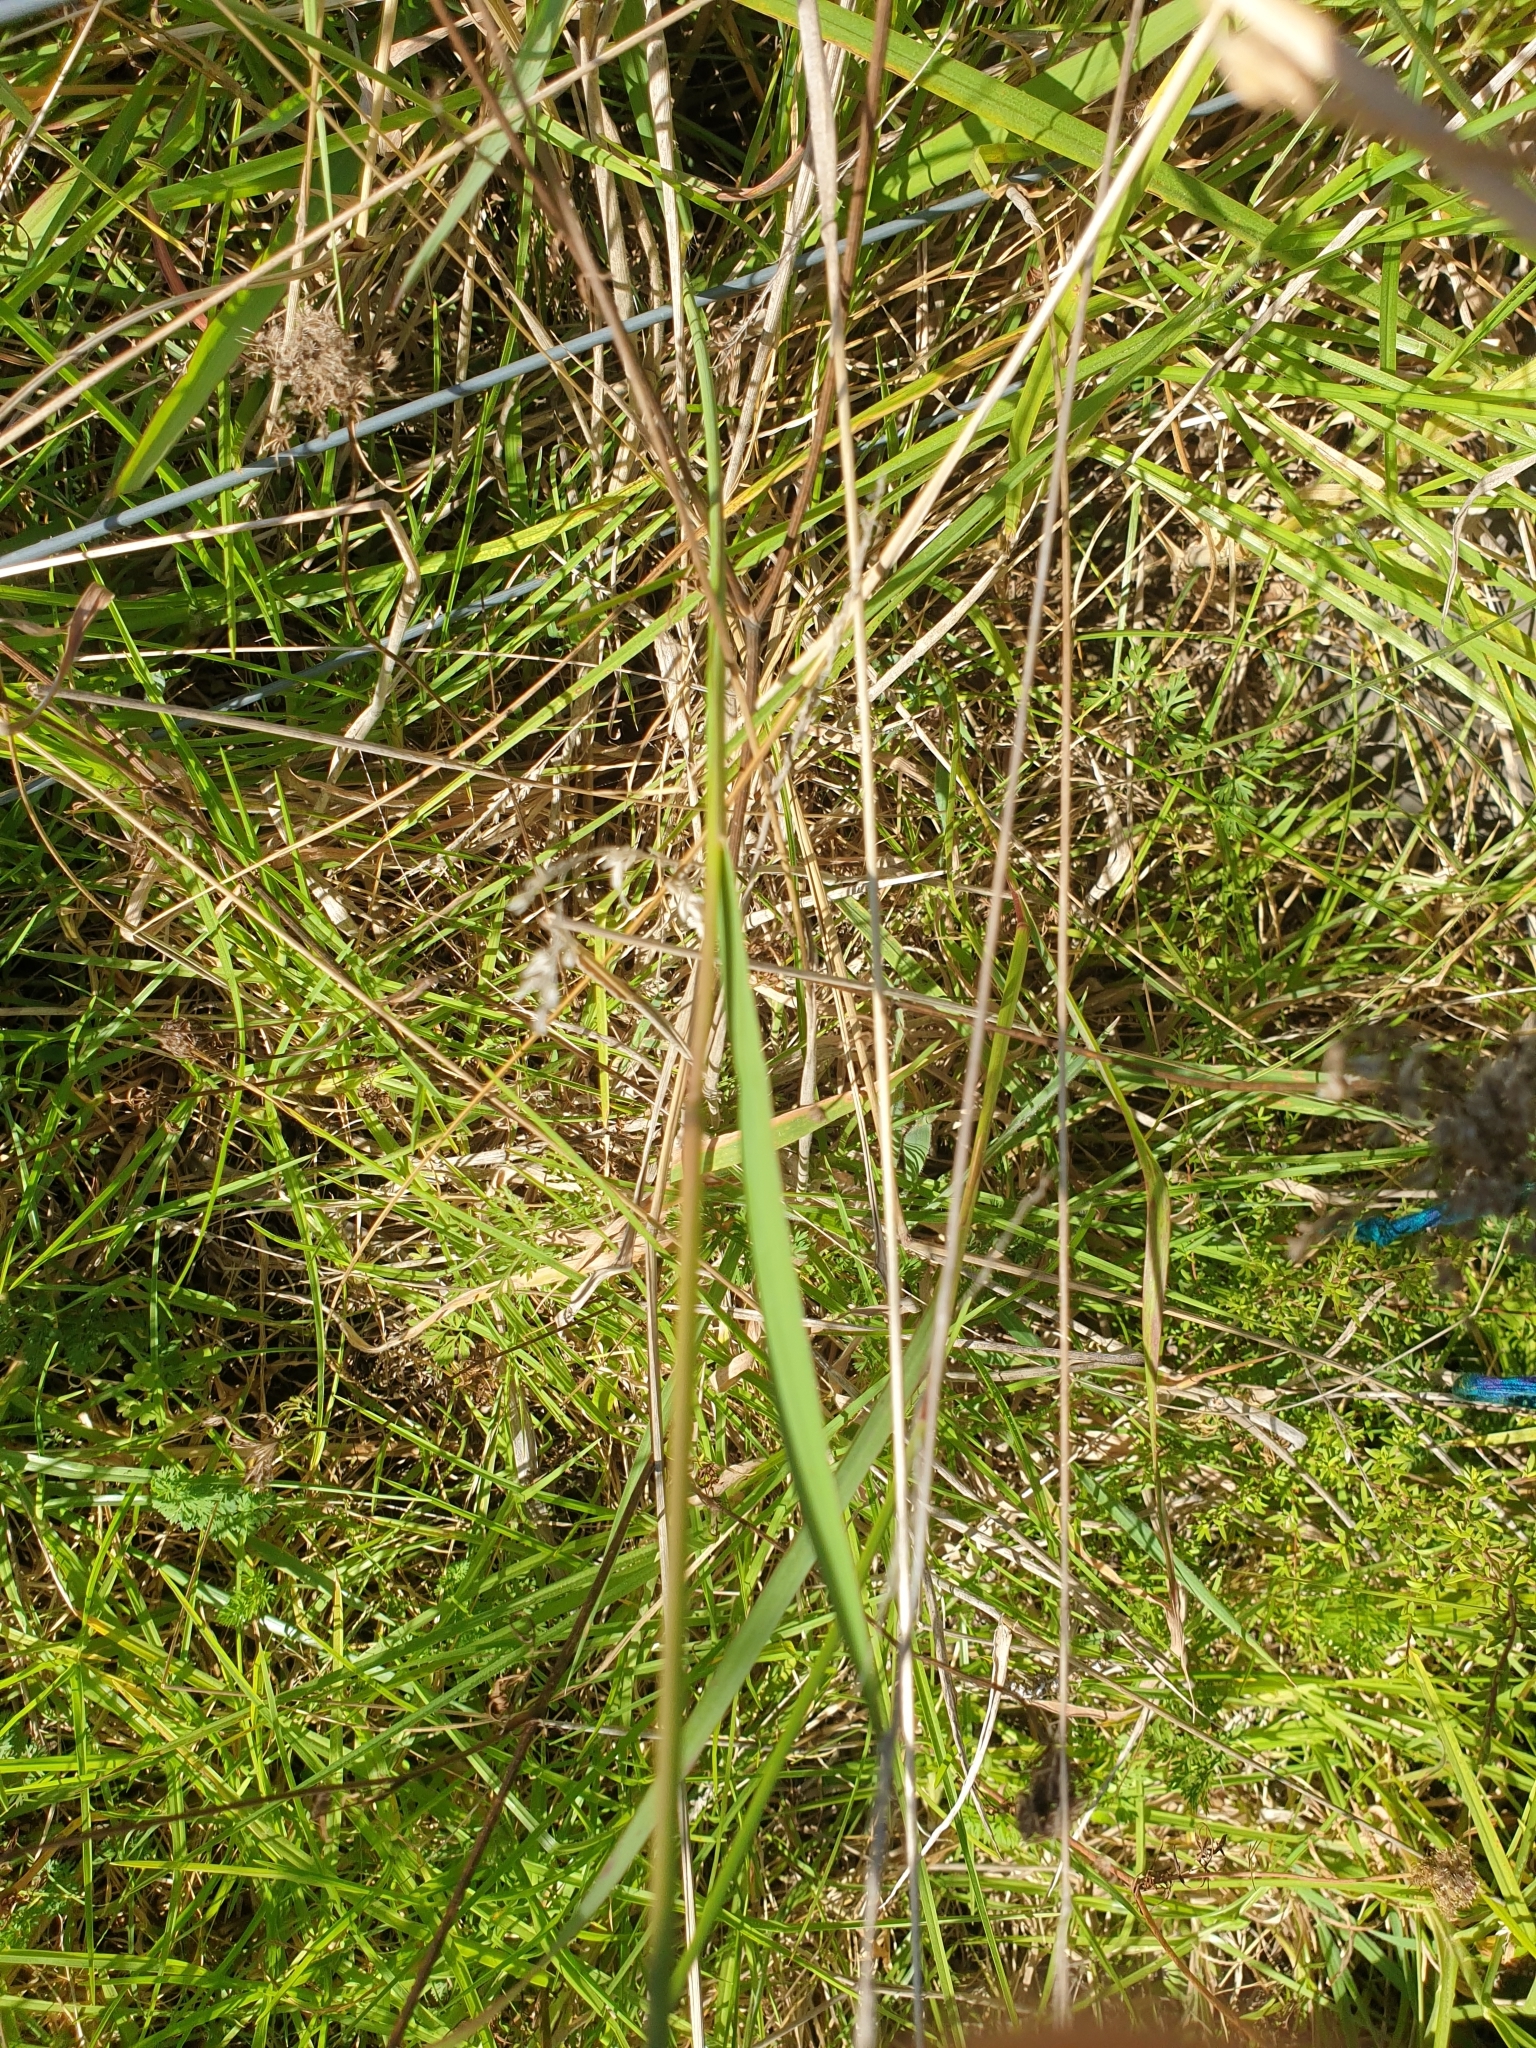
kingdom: Plantae
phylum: Tracheophyta
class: Liliopsida
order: Poales
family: Poaceae
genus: Paspalum
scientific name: Paspalum dilatatum
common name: Dallisgrass
